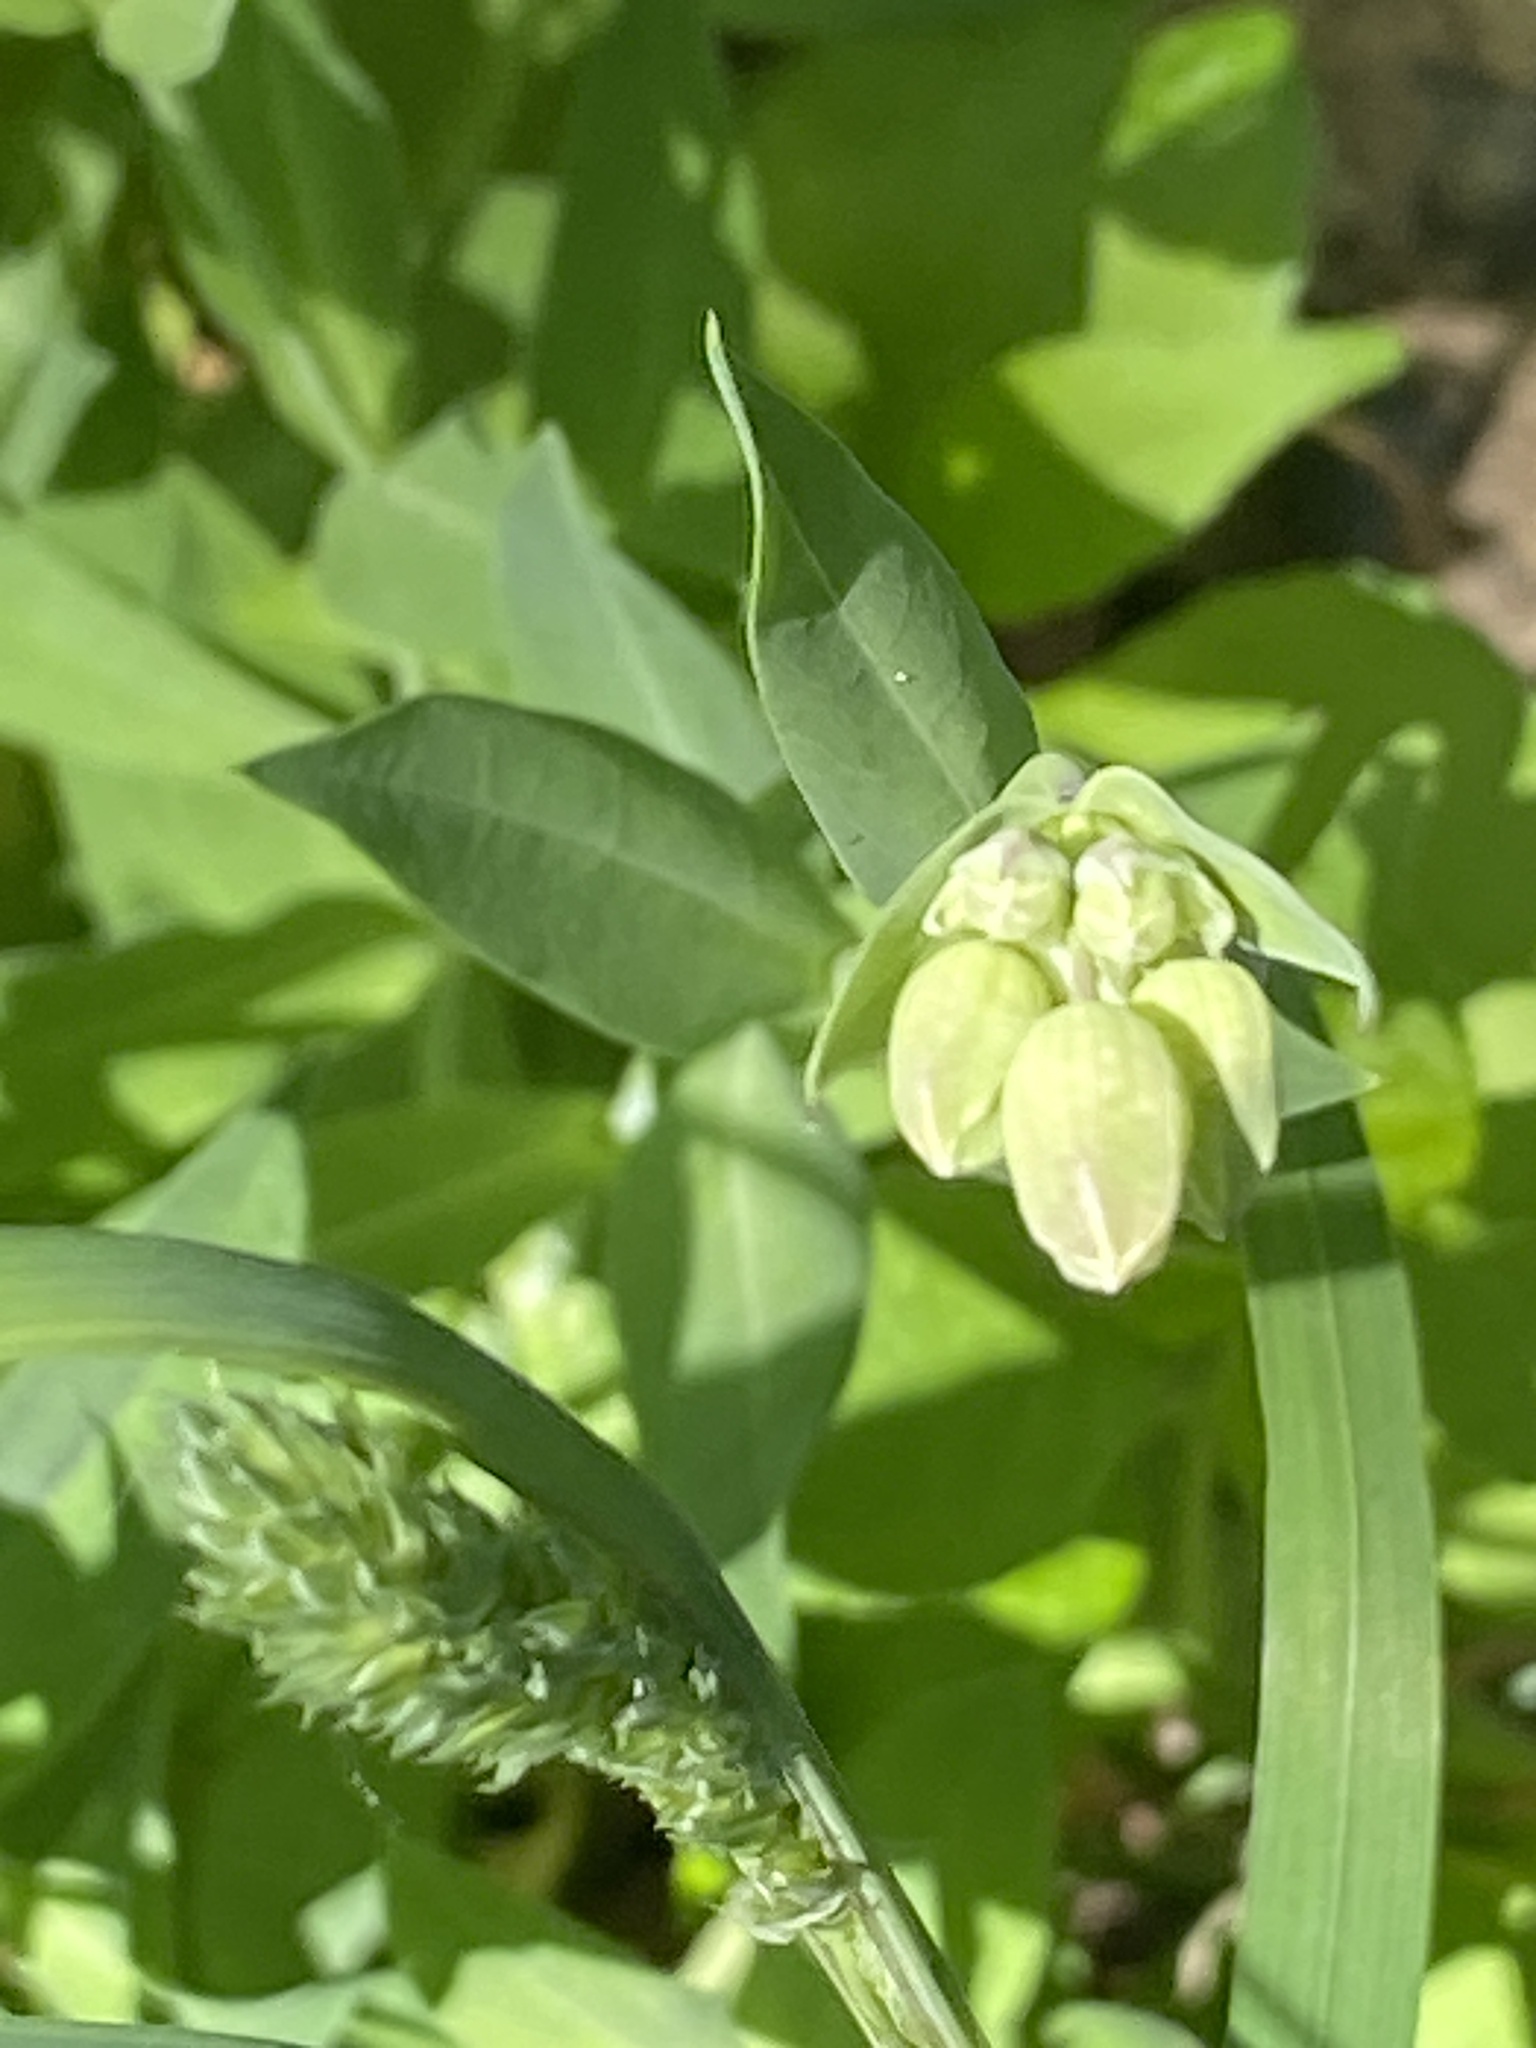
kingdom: Plantae
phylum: Tracheophyta
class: Magnoliopsida
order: Caryophyllales
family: Caryophyllaceae
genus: Silene
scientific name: Silene vulgaris
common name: Bladder campion
